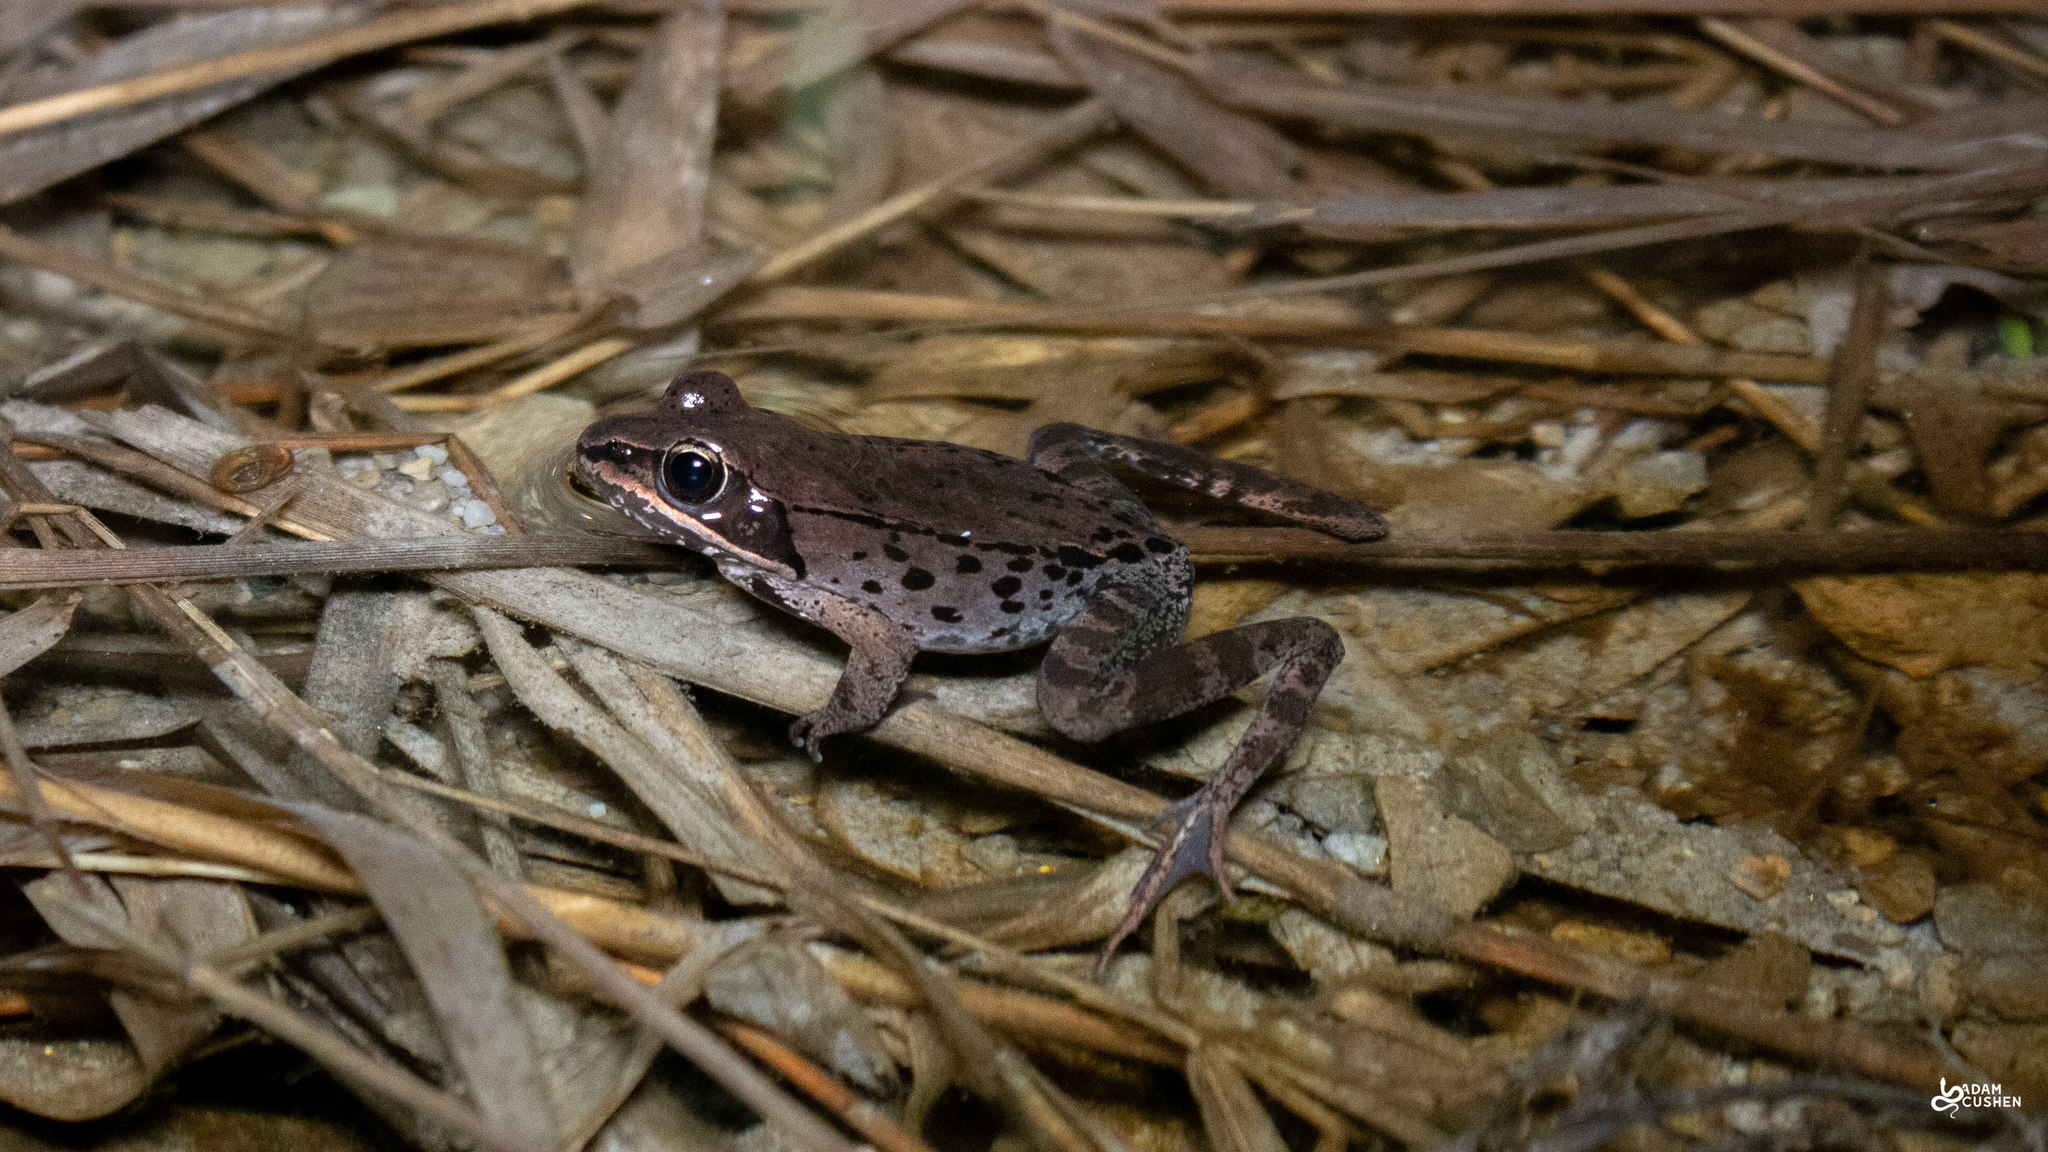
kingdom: Animalia
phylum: Chordata
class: Amphibia
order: Anura
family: Ranidae
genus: Lithobates
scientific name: Lithobates sylvaticus
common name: Wood frog
